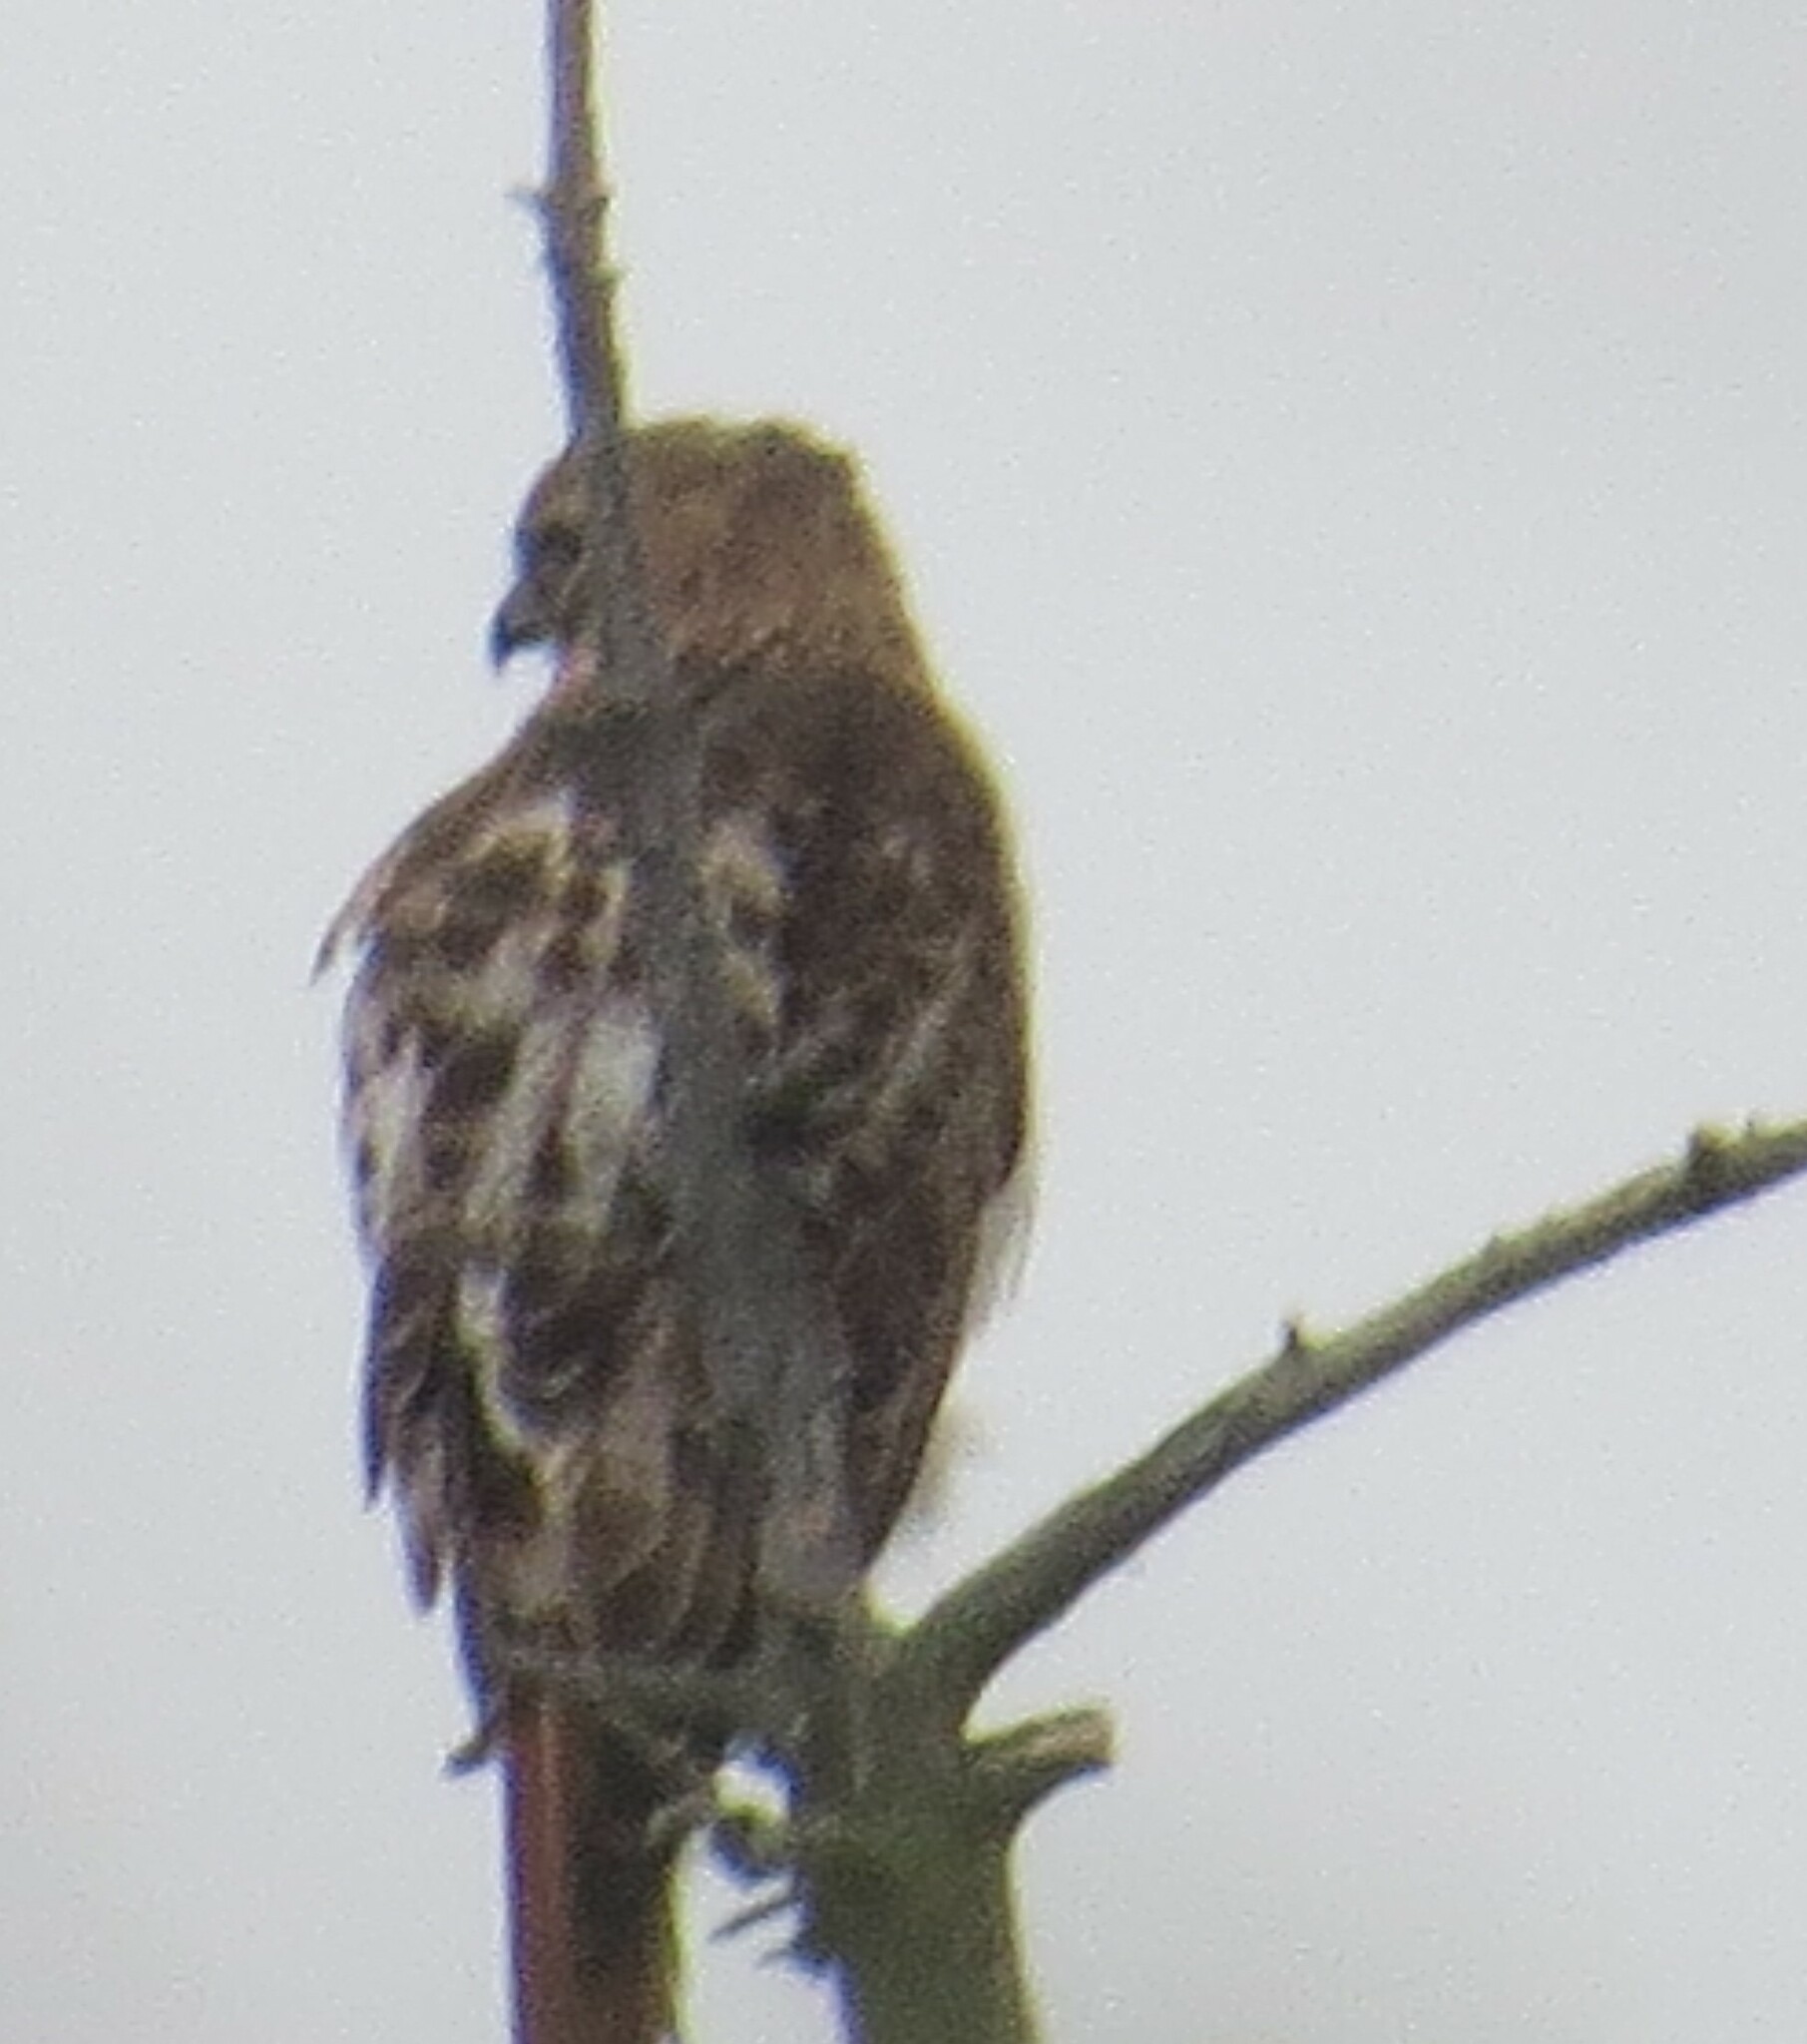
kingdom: Animalia
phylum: Chordata
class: Aves
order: Accipitriformes
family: Accipitridae
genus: Buteo
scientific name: Buteo jamaicensis
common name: Red-tailed hawk
